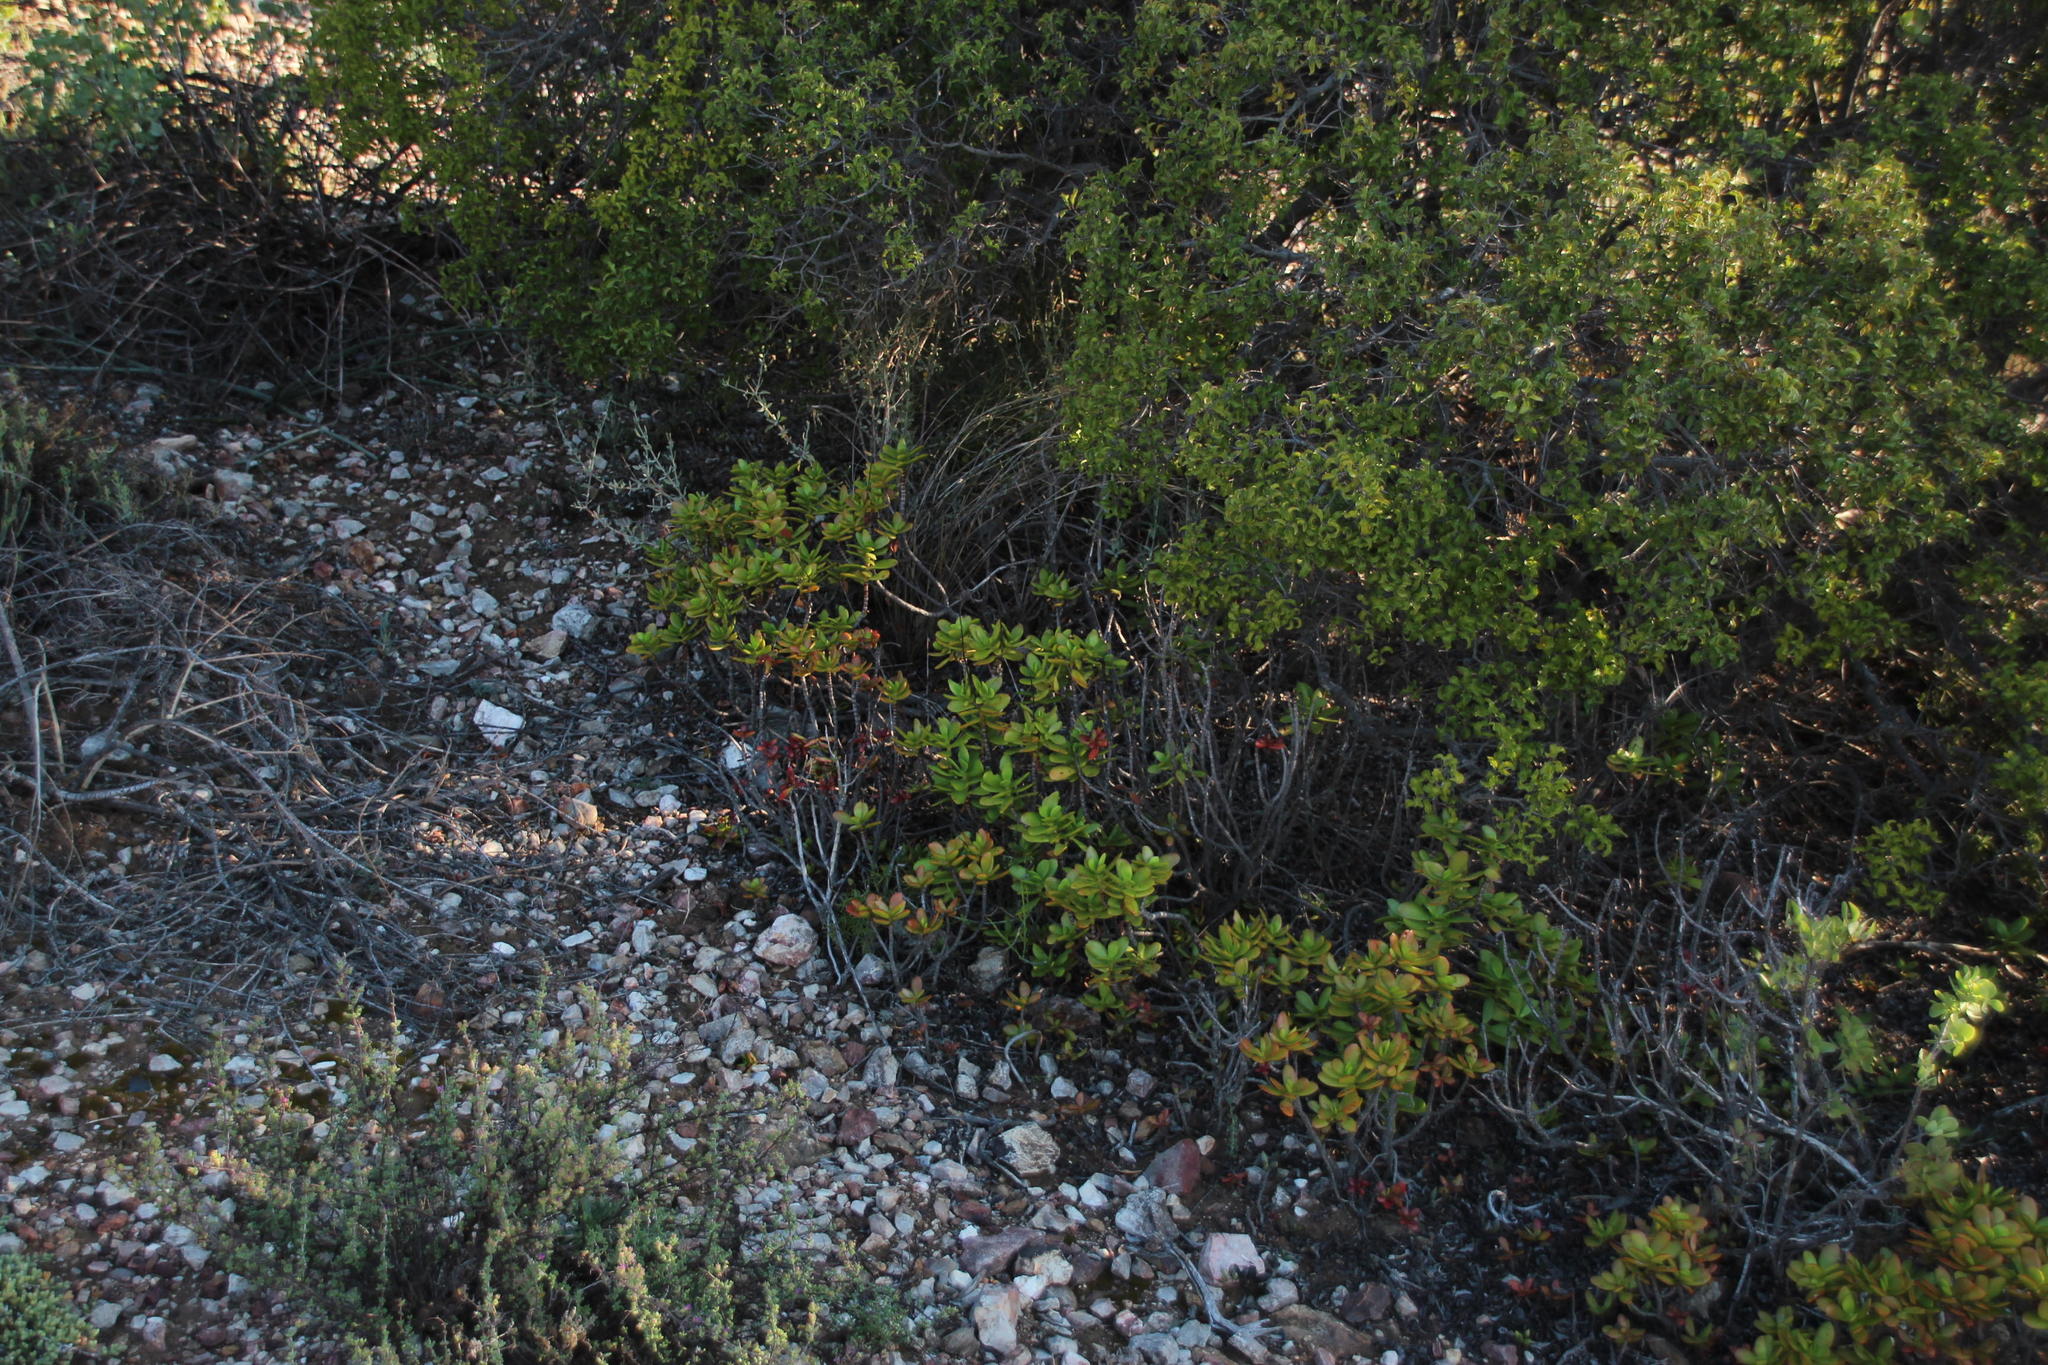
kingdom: Plantae
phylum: Tracheophyta
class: Magnoliopsida
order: Saxifragales
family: Crassulaceae
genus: Crassula
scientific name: Crassula cultrata
